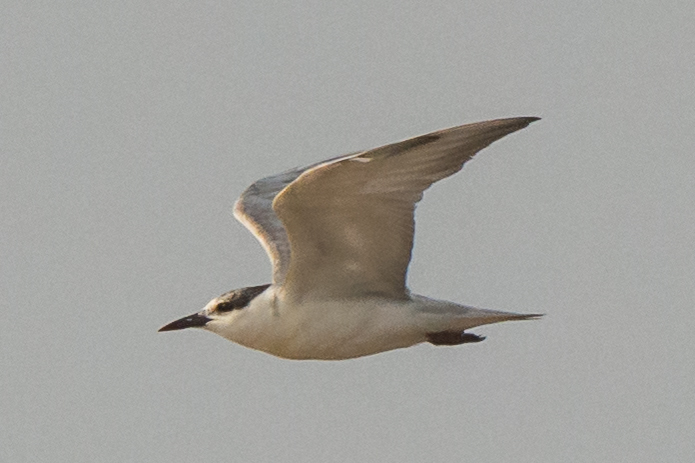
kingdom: Animalia
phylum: Chordata
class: Aves
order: Charadriiformes
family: Laridae
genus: Chlidonias
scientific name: Chlidonias hybrida
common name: Whiskered tern
